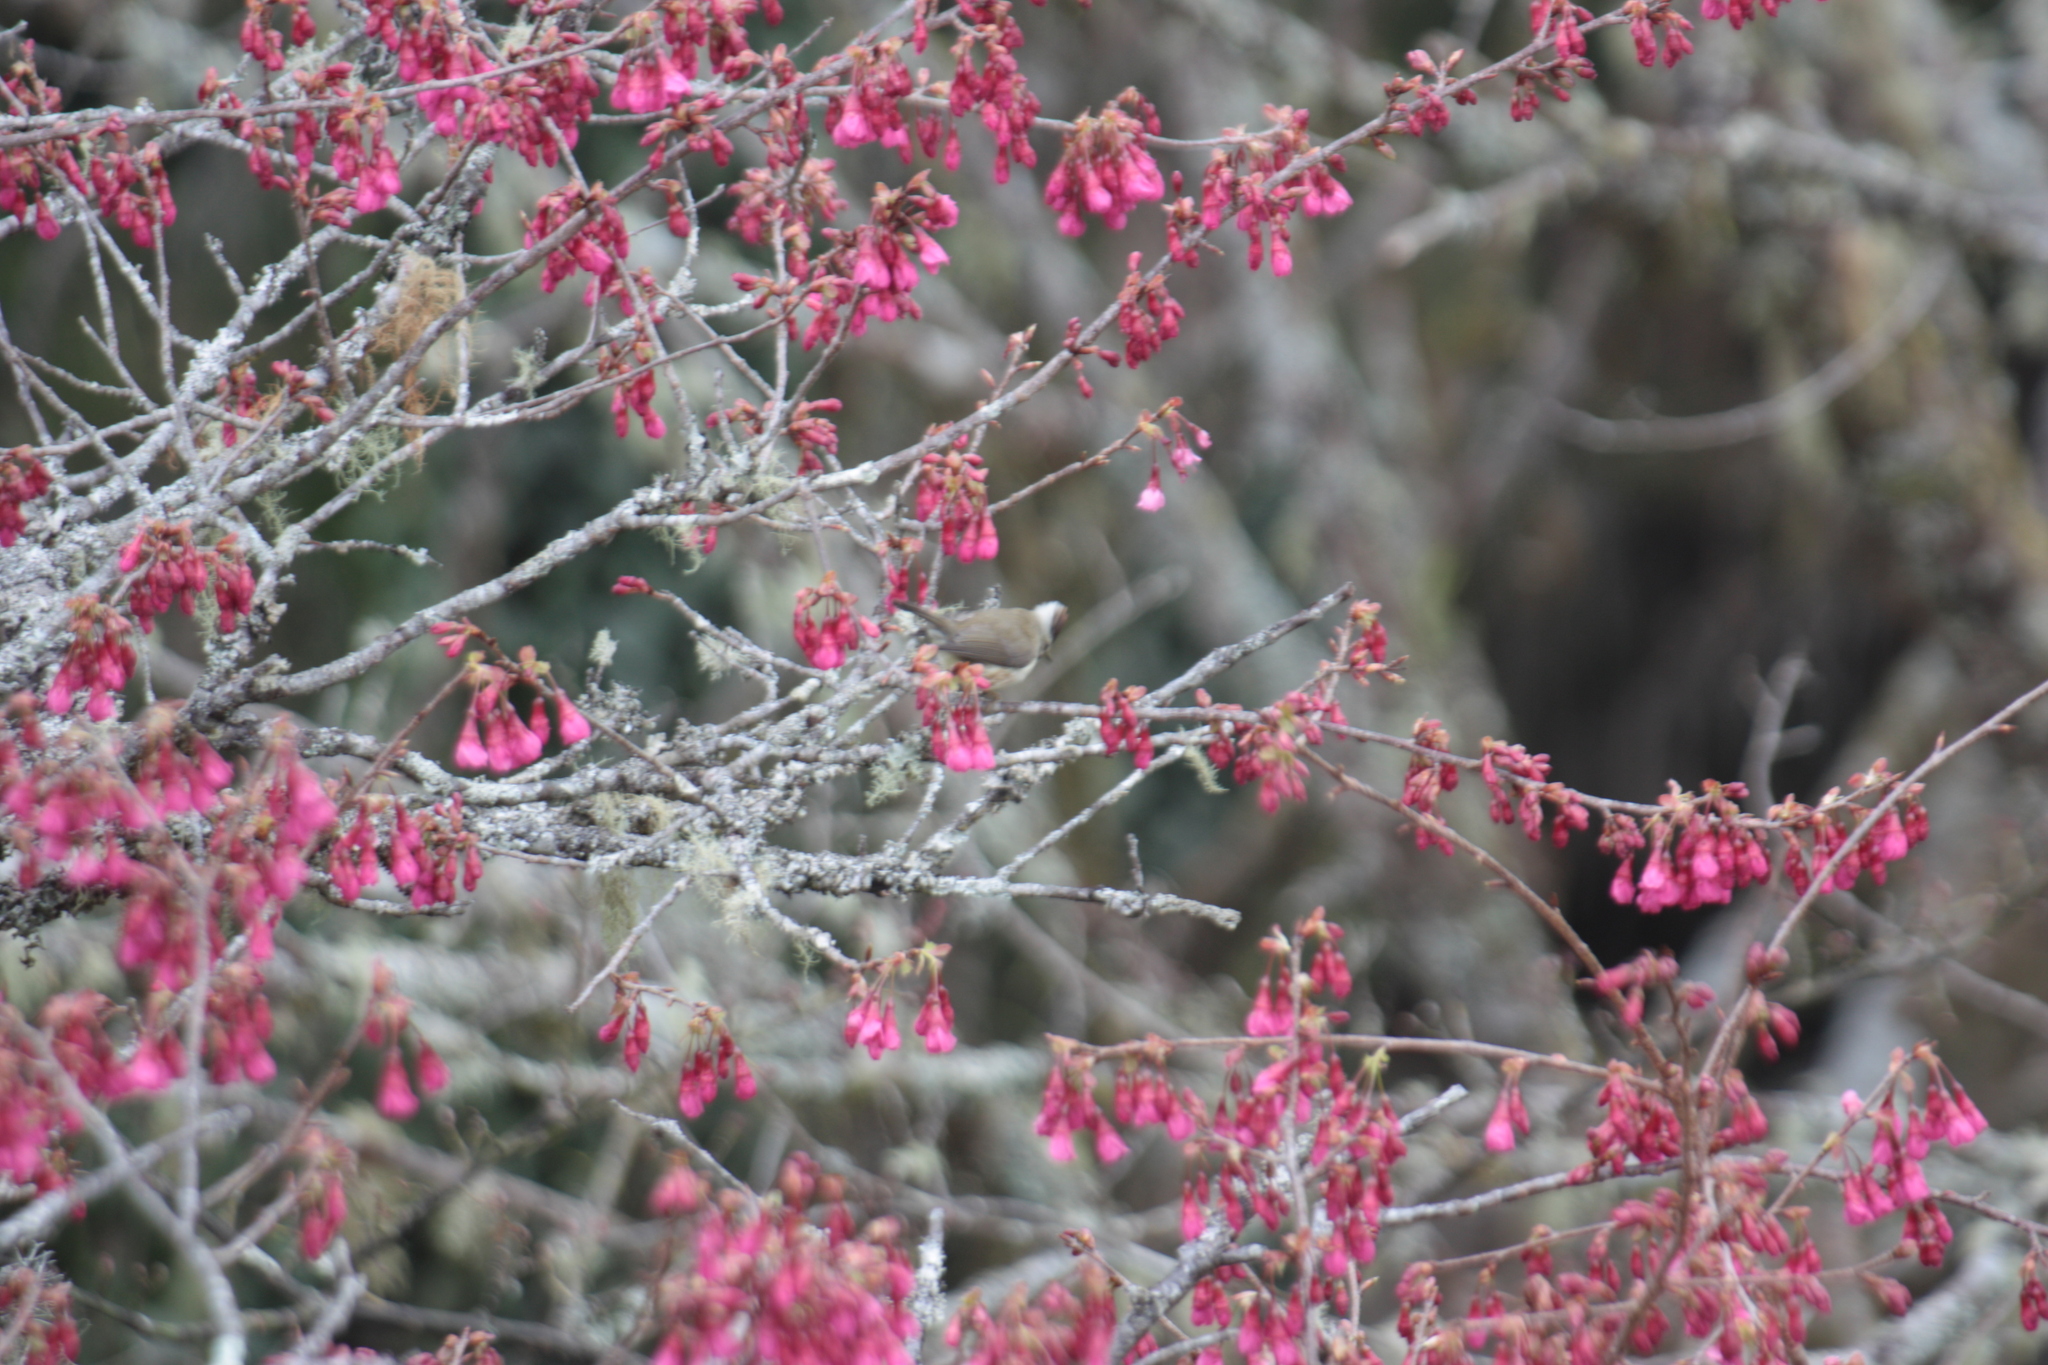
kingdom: Animalia
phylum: Chordata
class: Aves
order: Passeriformes
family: Zosteropidae
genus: Yuhina
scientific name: Yuhina brunneiceps
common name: Taiwan yuhina
